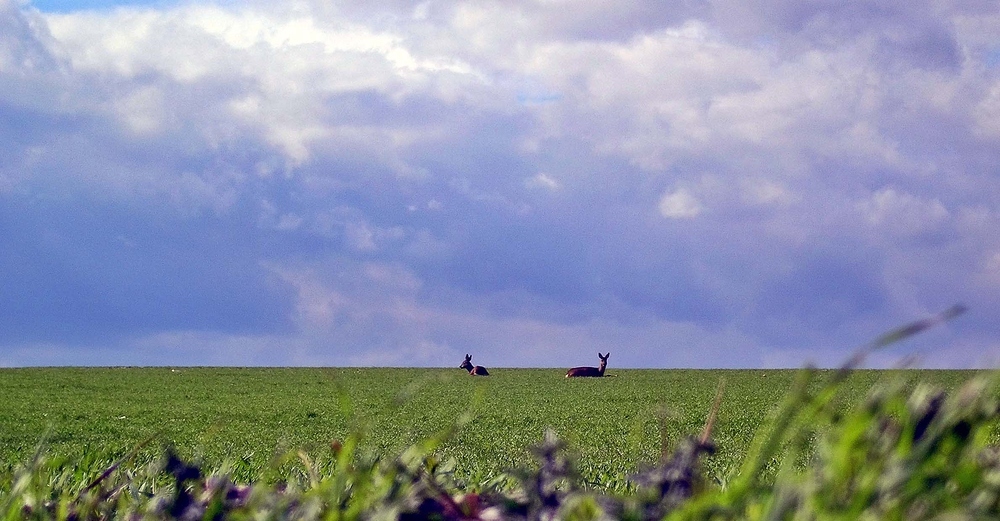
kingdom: Animalia
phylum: Chordata
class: Mammalia
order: Artiodactyla
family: Cervidae
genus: Capreolus
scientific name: Capreolus capreolus
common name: Western roe deer
